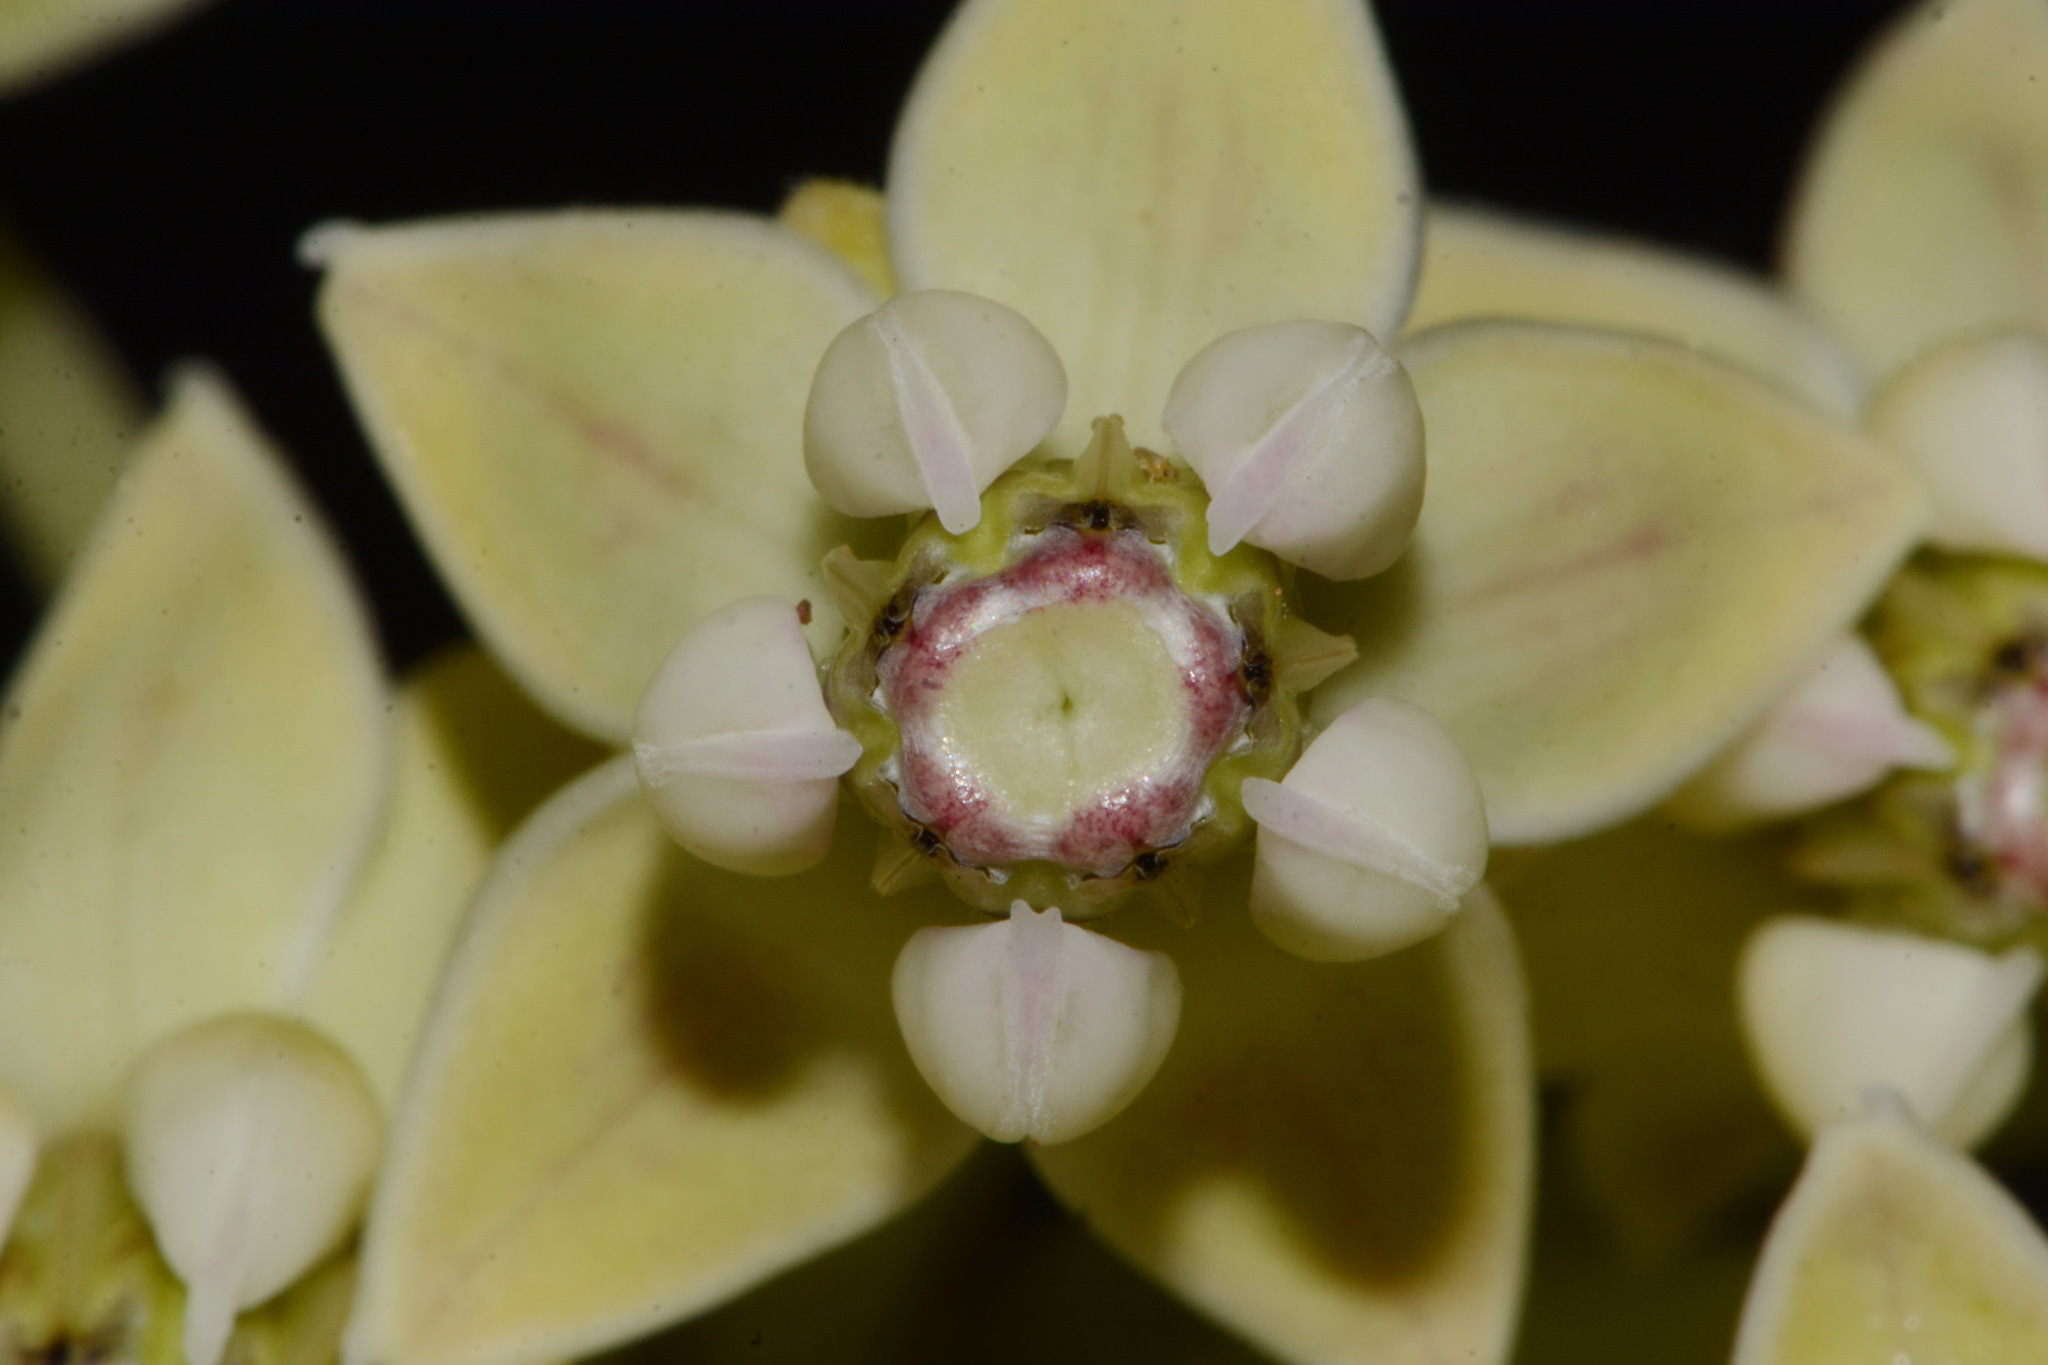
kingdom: Plantae
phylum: Tracheophyta
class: Magnoliopsida
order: Gentianales
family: Apocynaceae
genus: Asclepias
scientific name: Asclepias latifolia
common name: Broadleaf milkweed
